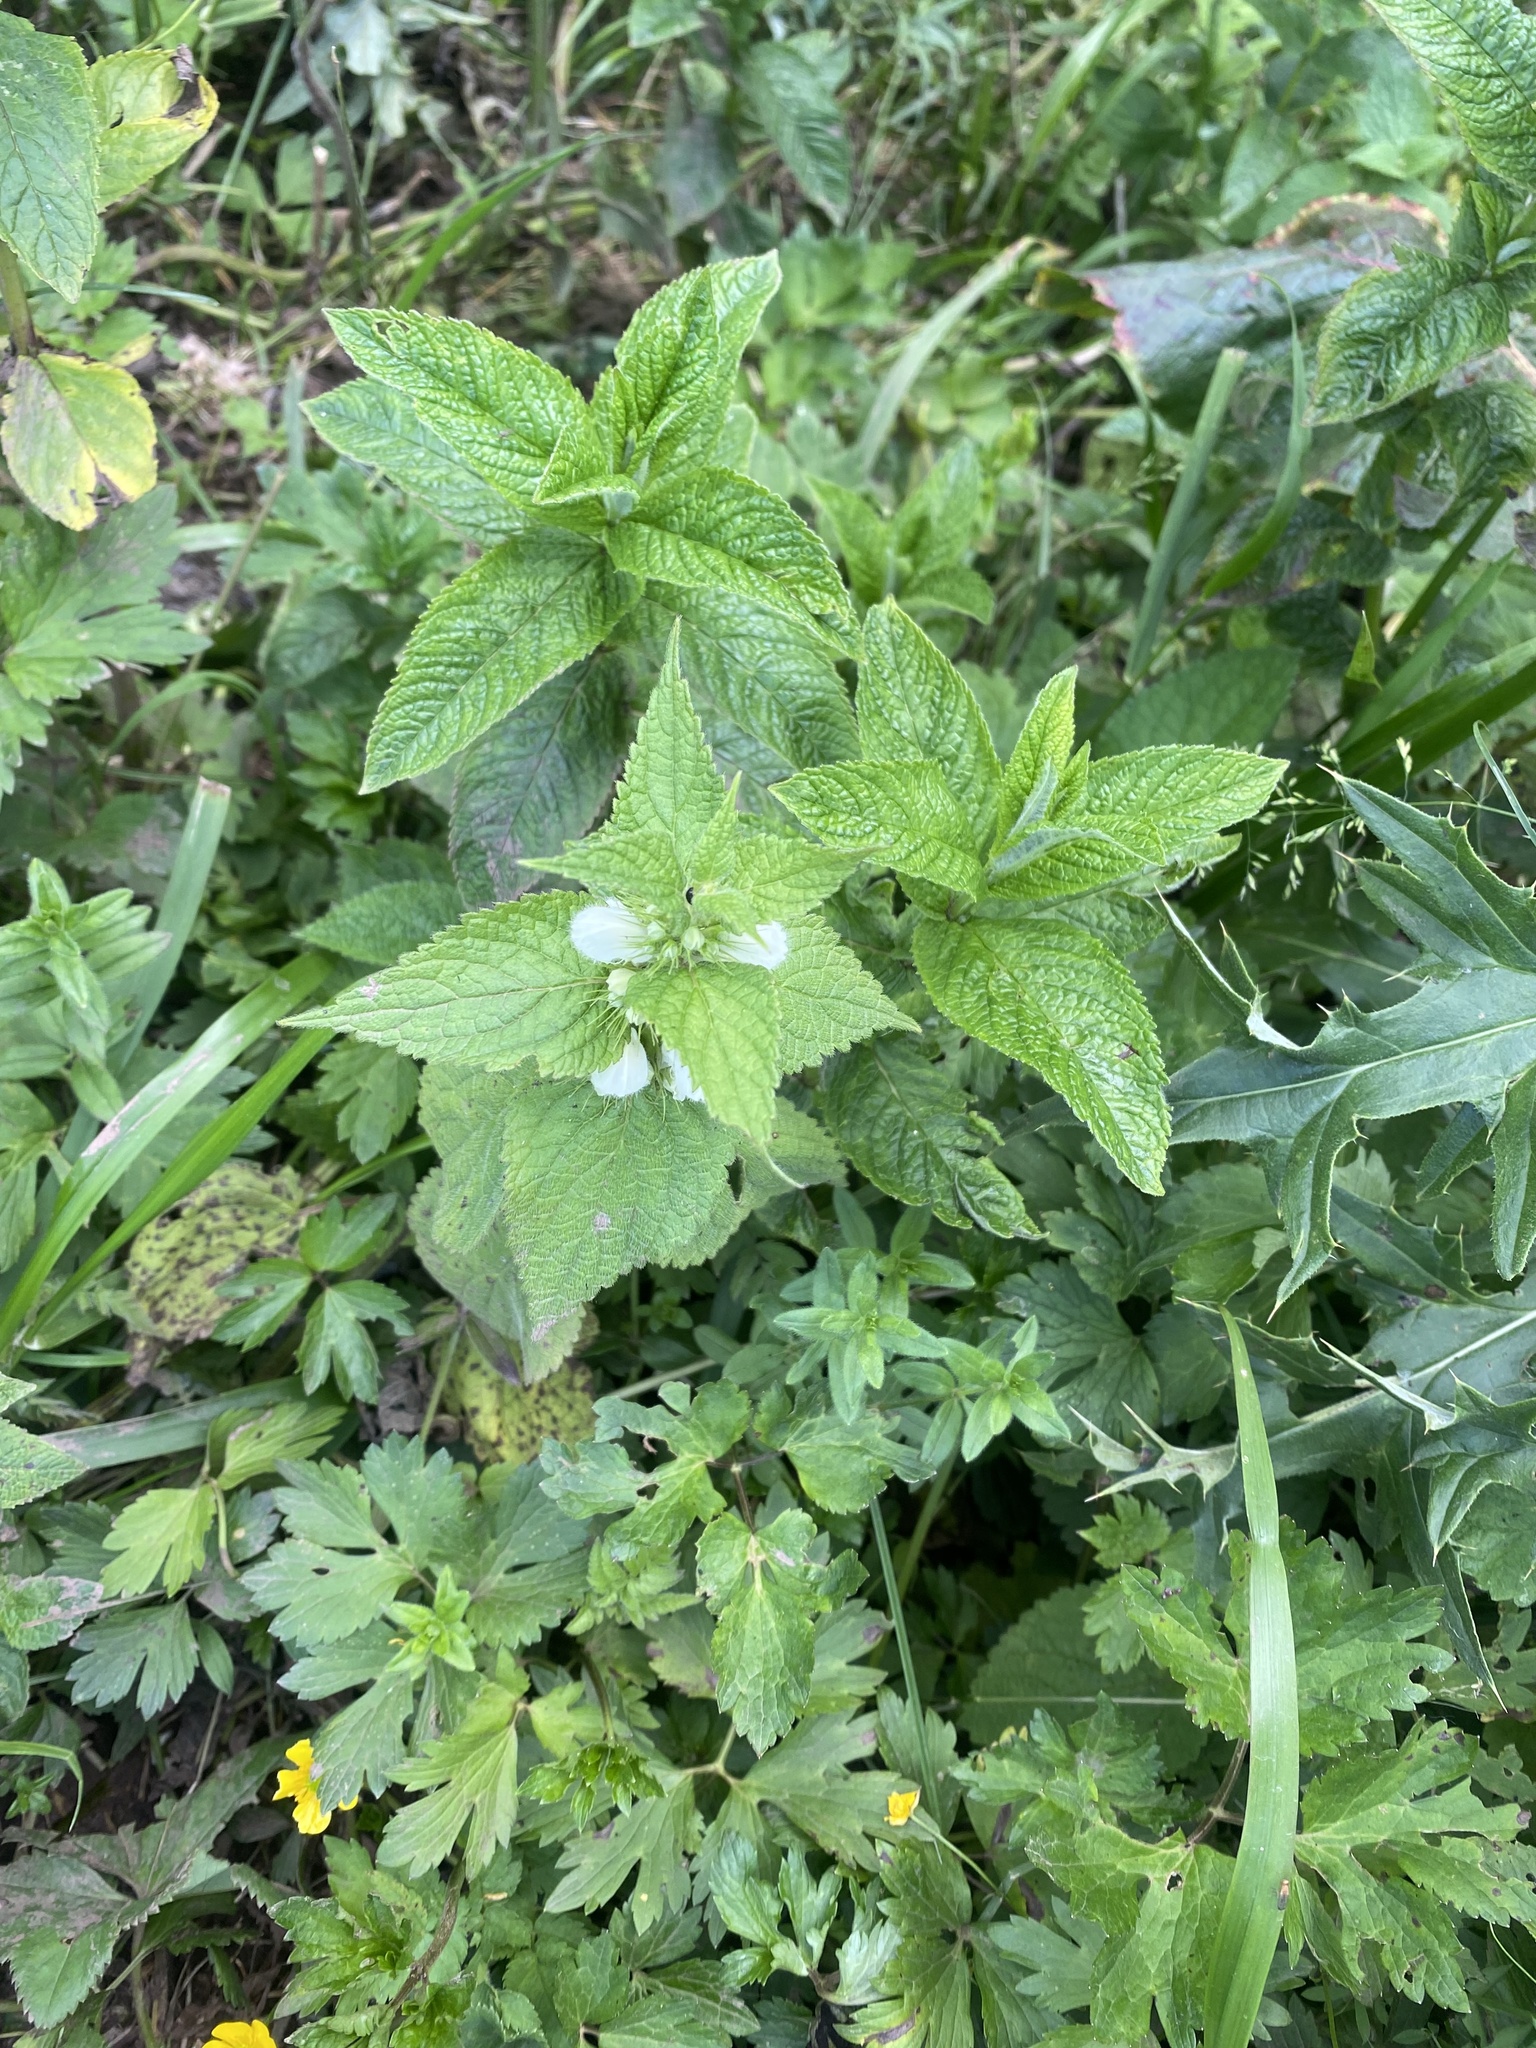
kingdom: Plantae
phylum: Tracheophyta
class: Magnoliopsida
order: Lamiales
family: Lamiaceae
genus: Lamium
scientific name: Lamium album
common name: White dead-nettle
